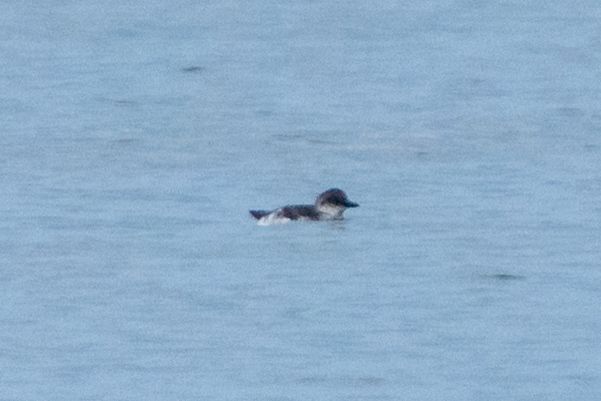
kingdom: Animalia
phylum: Chordata
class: Aves
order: Charadriiformes
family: Alcidae
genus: Cepphus
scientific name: Cepphus columba
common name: Pigeon guillemot
